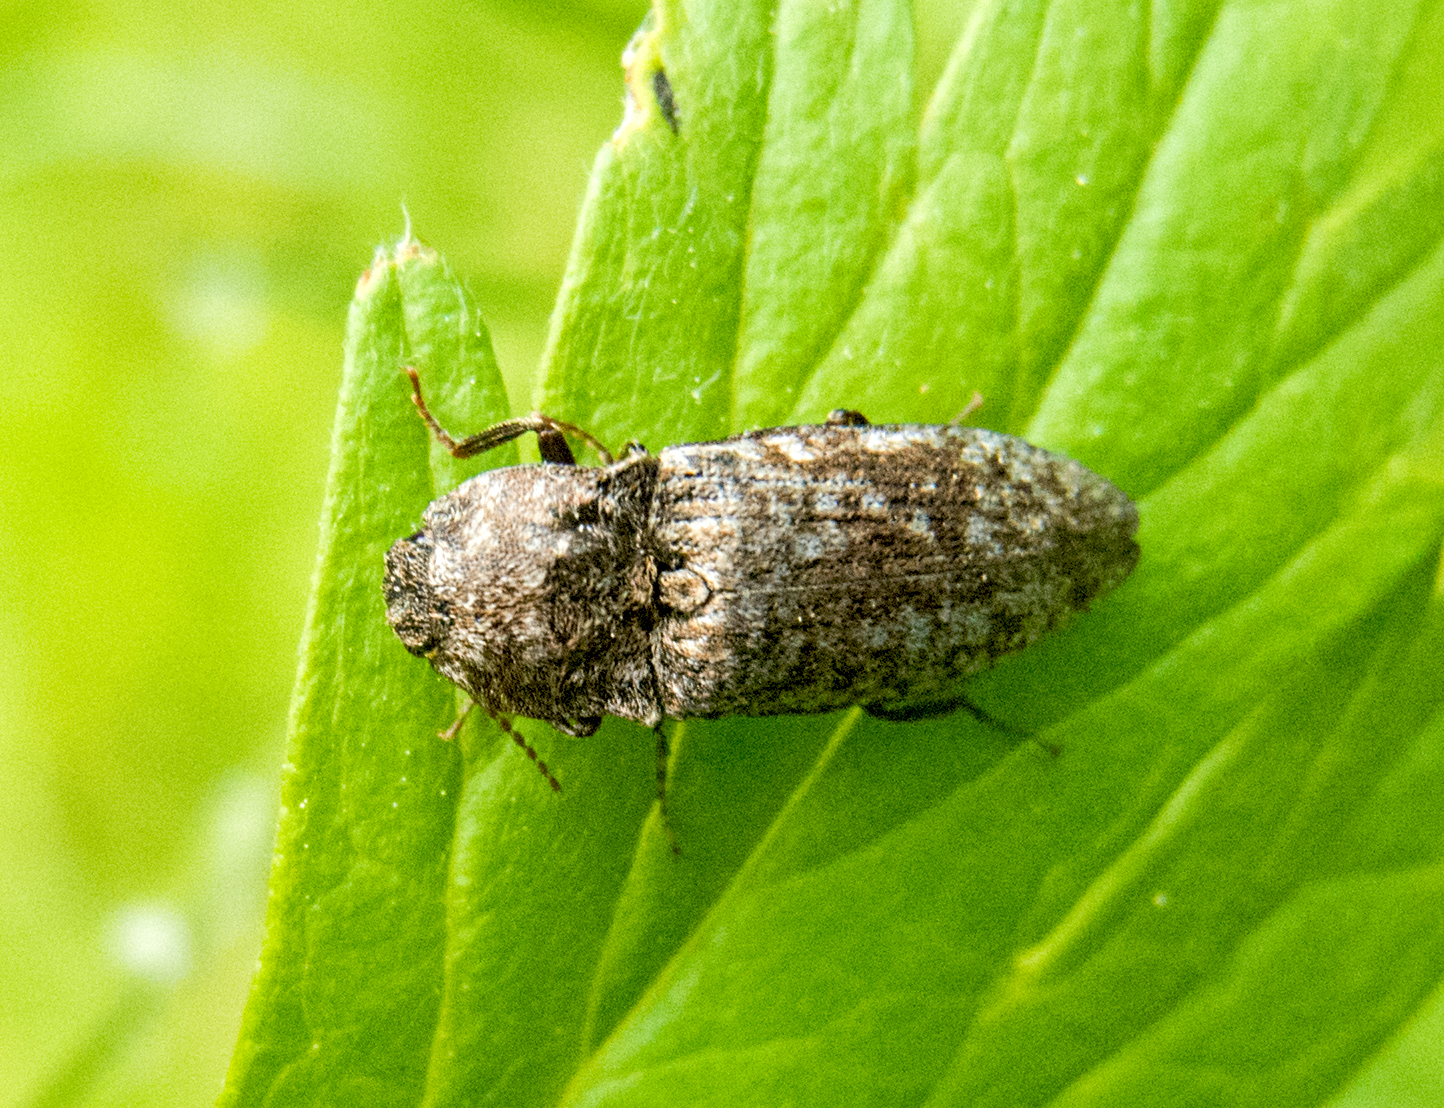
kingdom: Animalia
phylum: Arthropoda
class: Insecta
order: Coleoptera
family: Elateridae
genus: Agrypnus
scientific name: Agrypnus murinus
